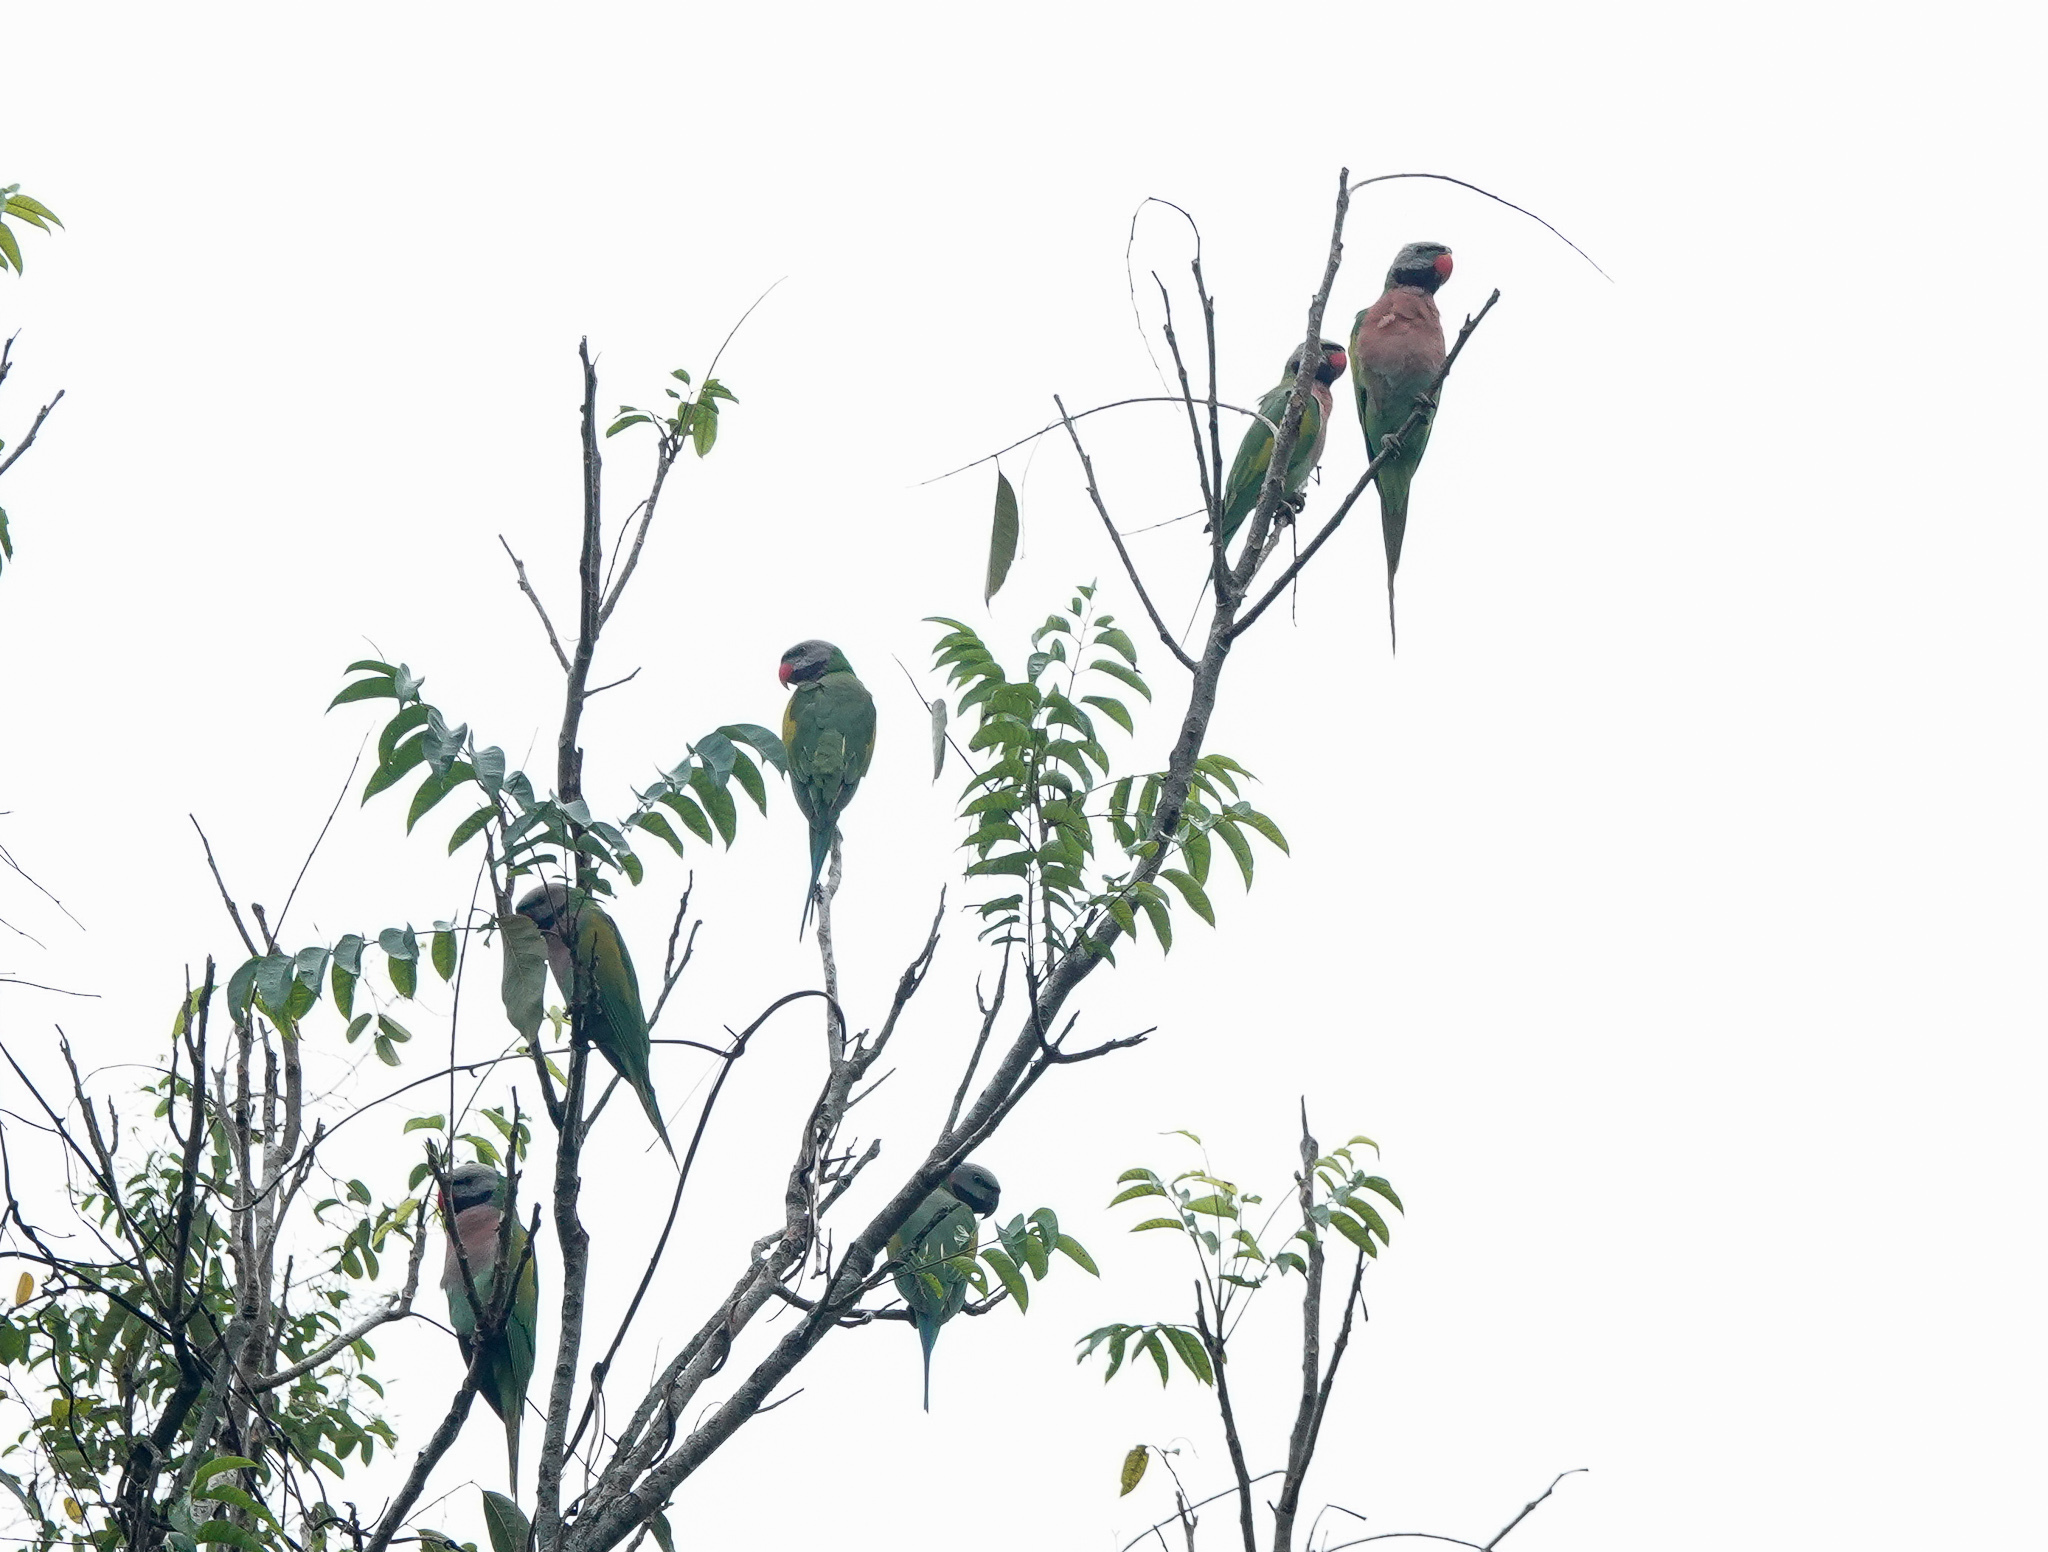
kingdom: Animalia
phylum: Chordata
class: Aves
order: Psittaciformes
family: Psittacidae
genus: Psittacula
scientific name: Psittacula alexandri
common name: Red-breasted parakeet
